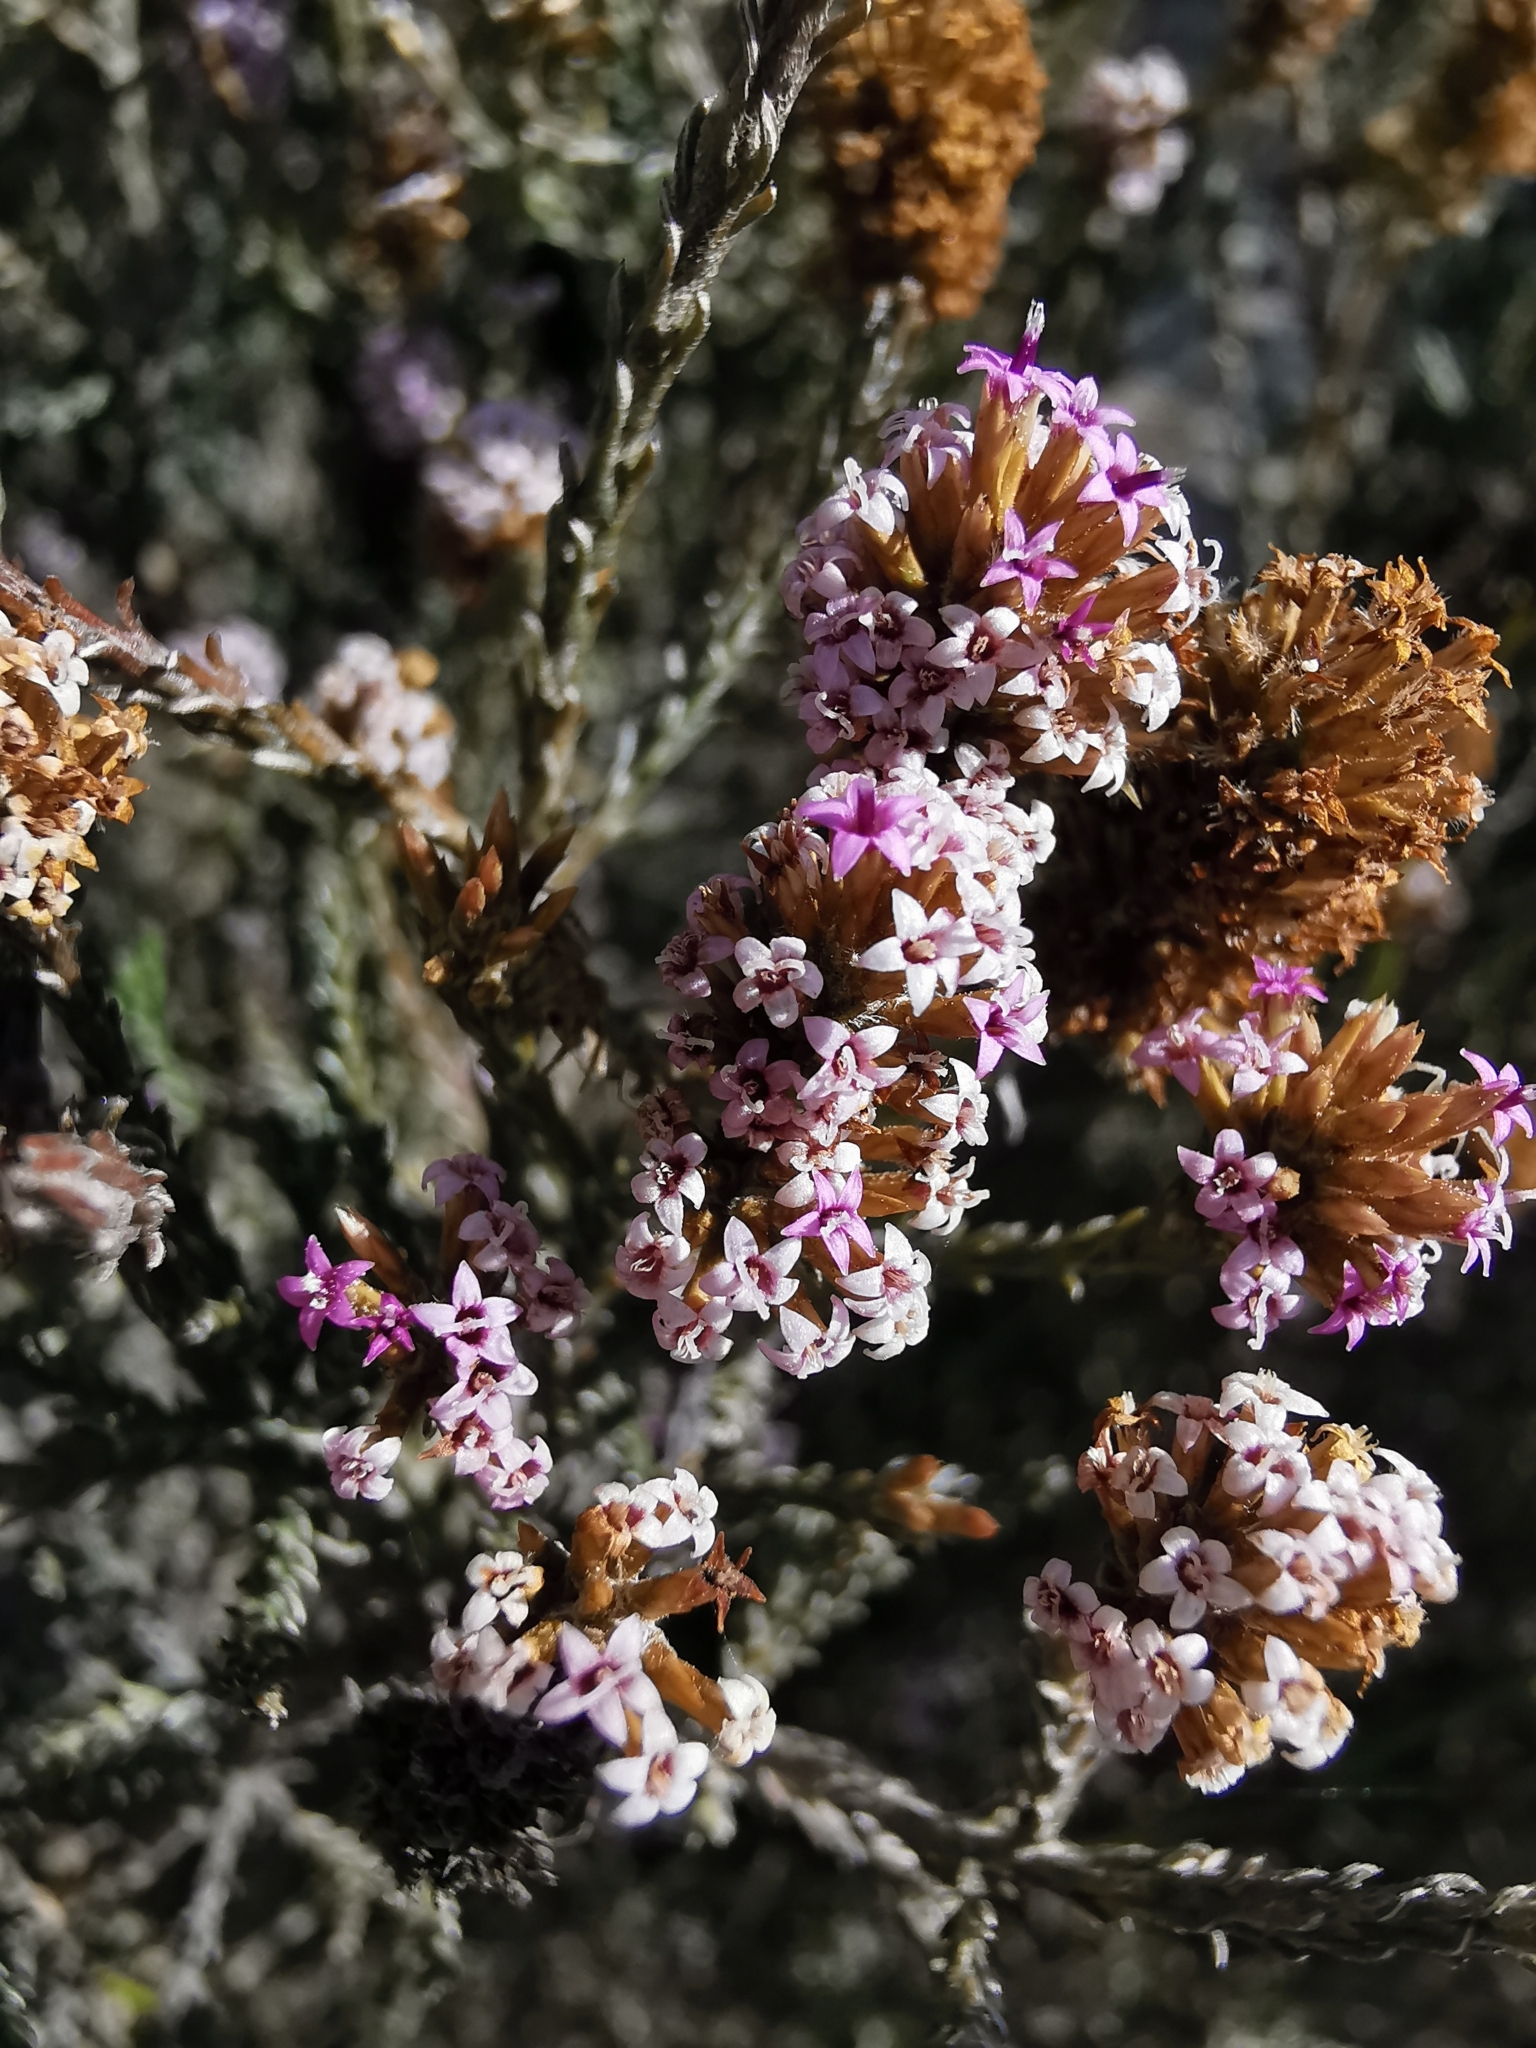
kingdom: Plantae
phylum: Tracheophyta
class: Magnoliopsida
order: Asterales
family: Asteraceae
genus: Stoebe
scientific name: Stoebe fusca
